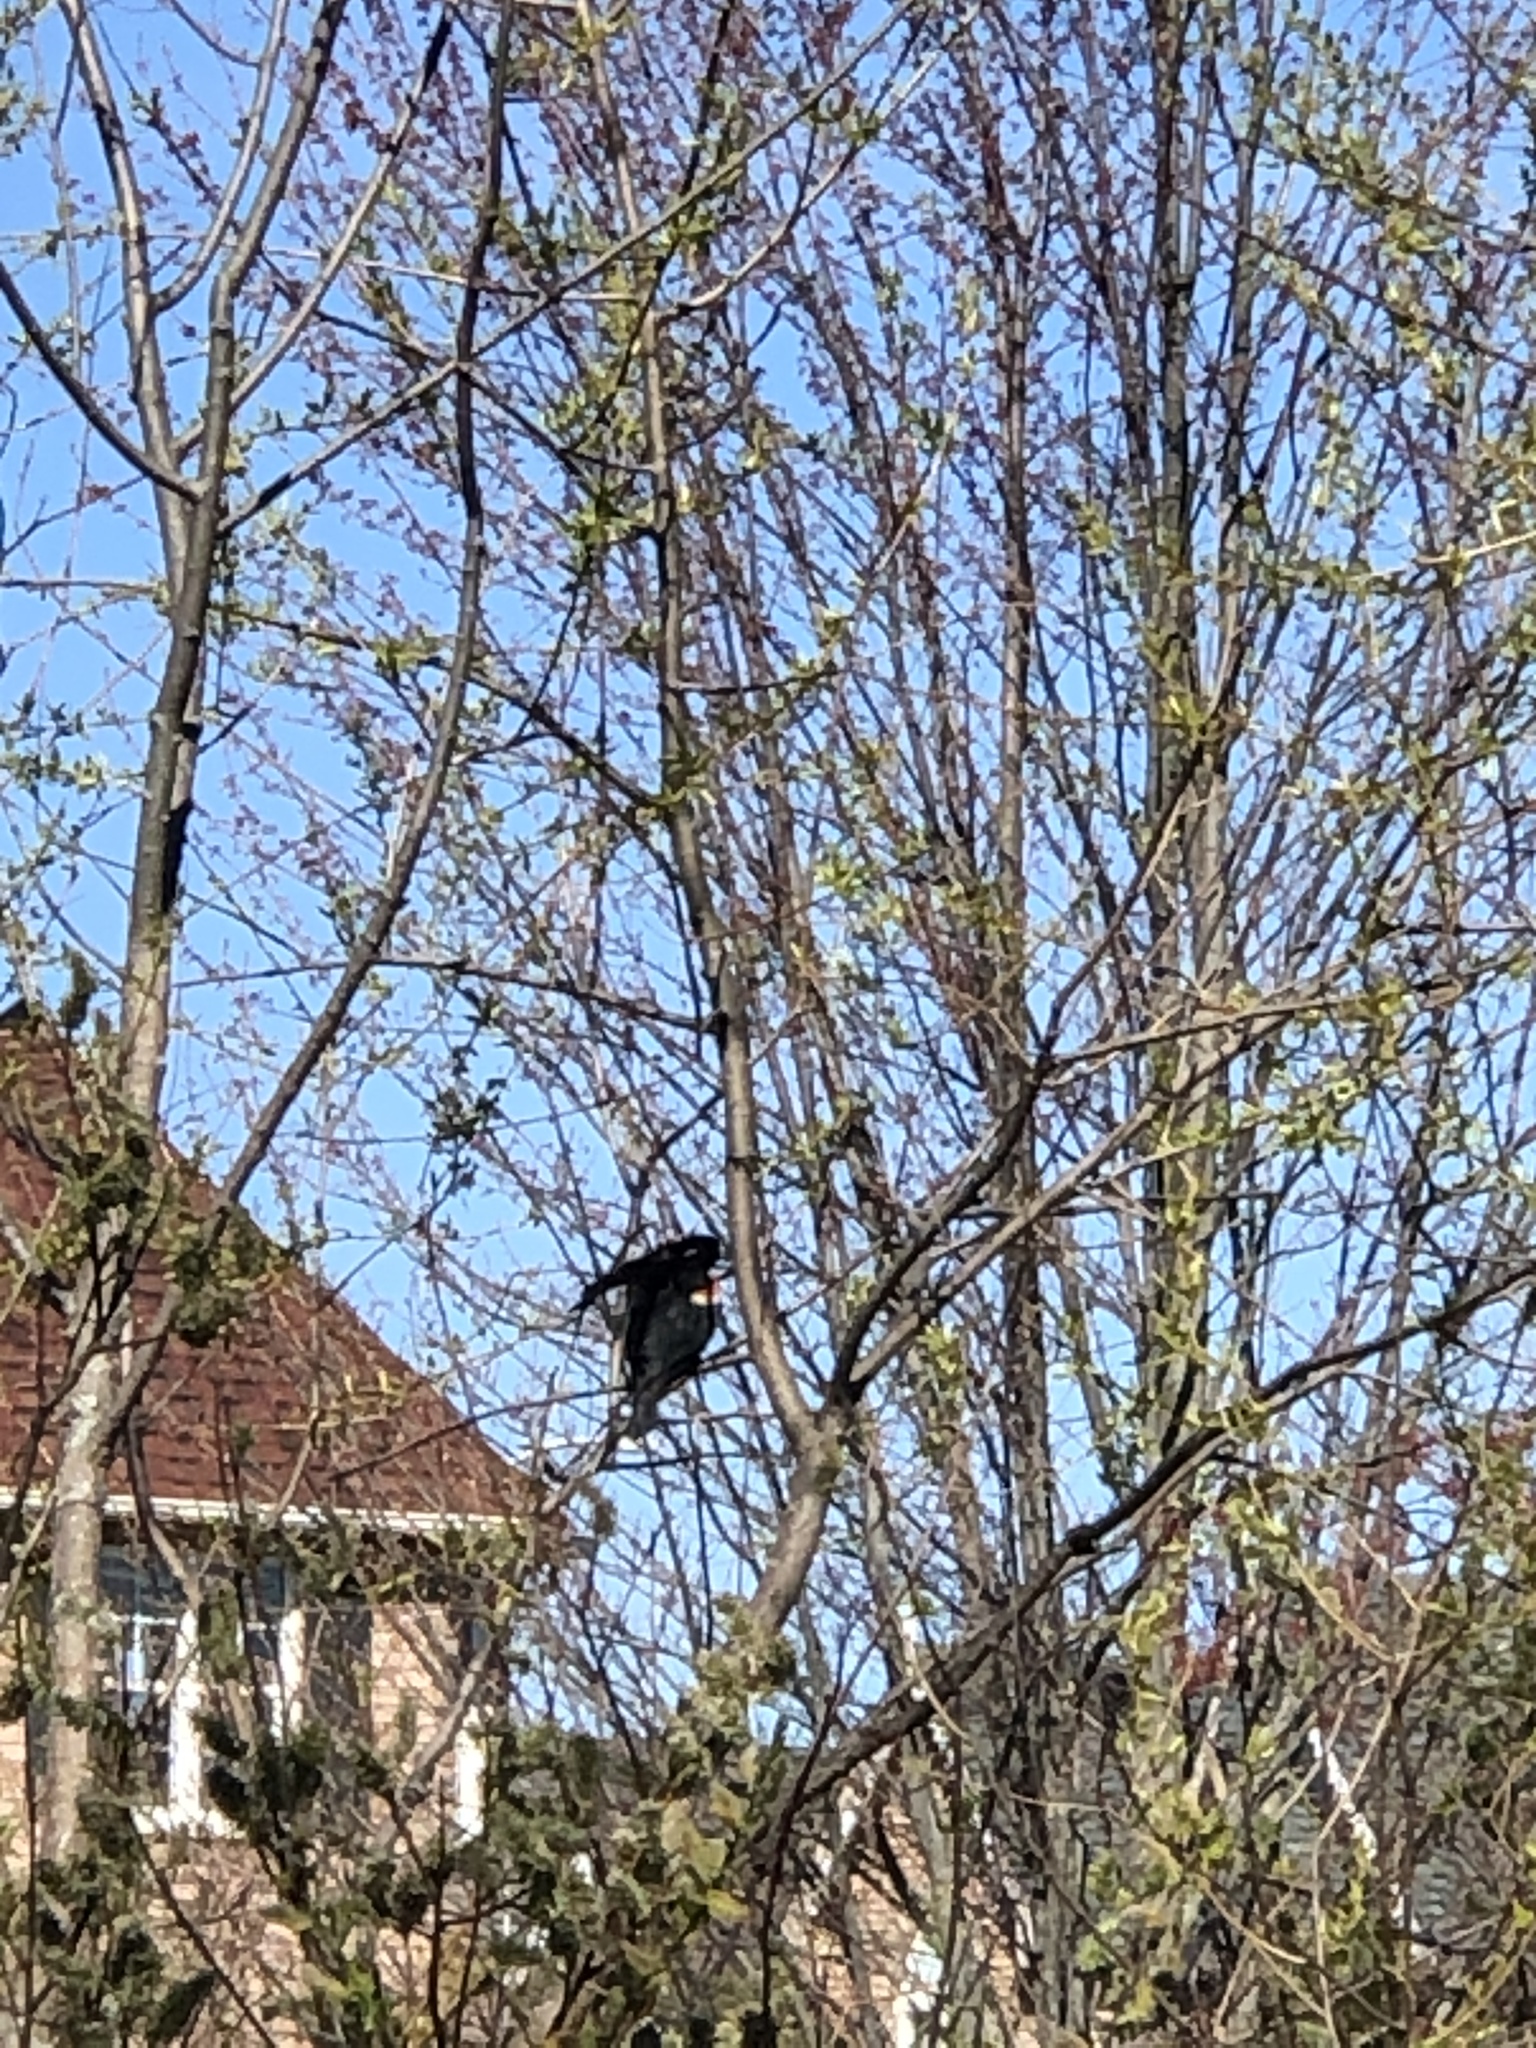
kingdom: Animalia
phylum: Chordata
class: Aves
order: Passeriformes
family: Icteridae
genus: Agelaius
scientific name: Agelaius phoeniceus
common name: Red-winged blackbird
